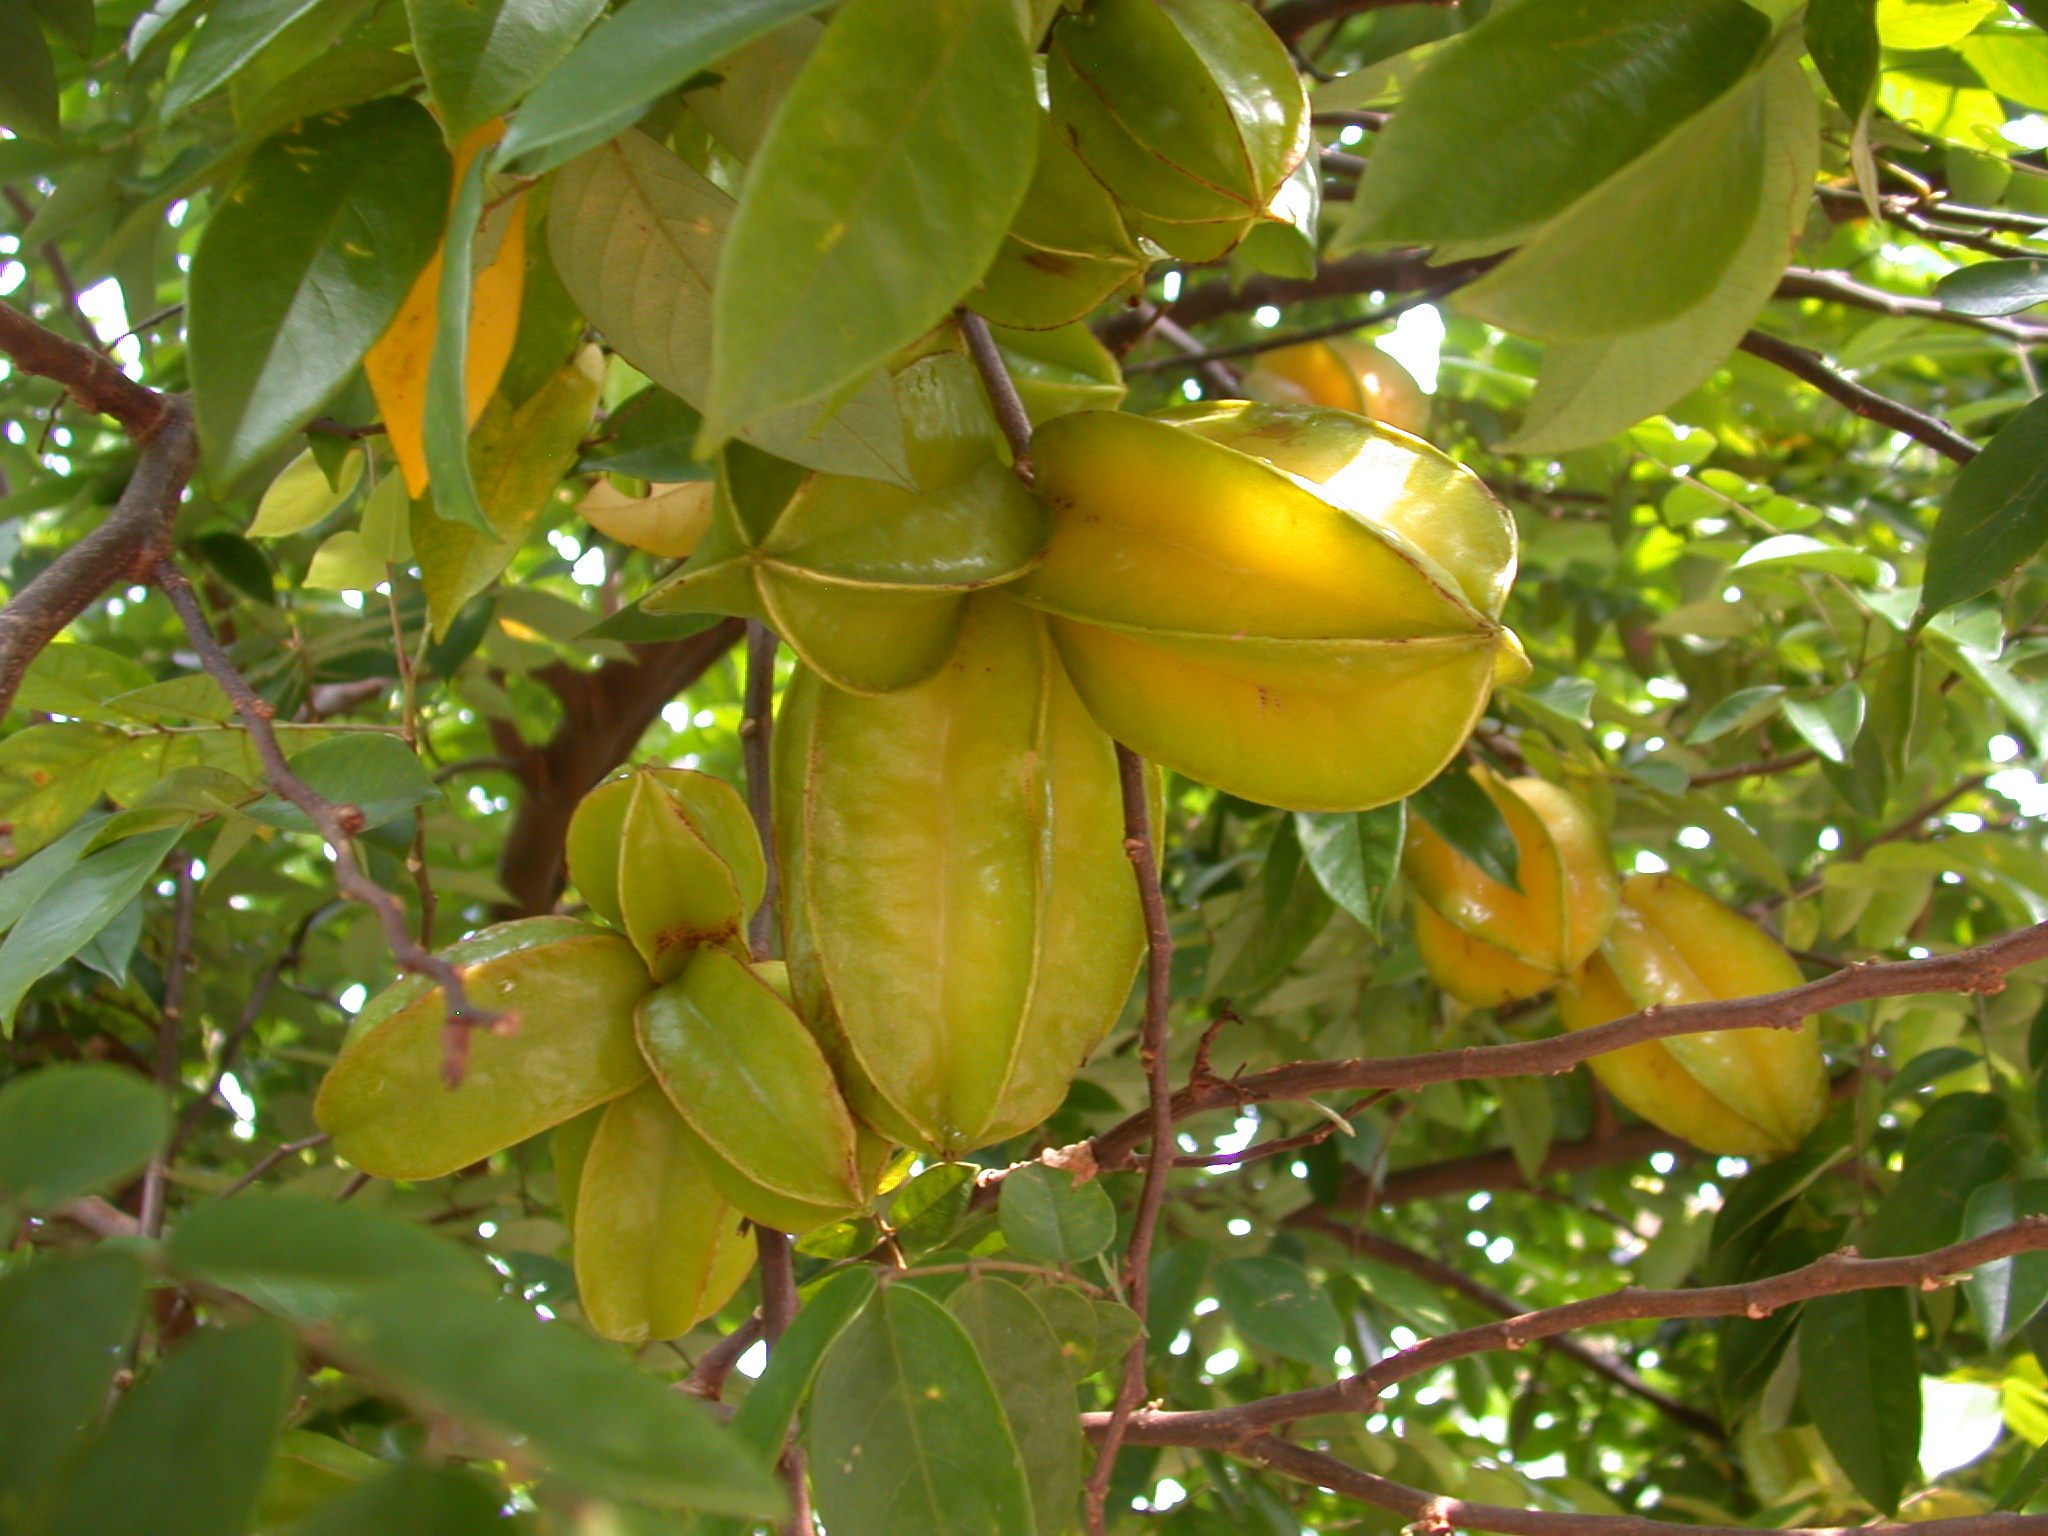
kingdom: Plantae
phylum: Tracheophyta
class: Magnoliopsida
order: Oxalidales
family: Oxalidaceae
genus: Averrhoa
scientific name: Averrhoa carambola
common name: Blimbing
